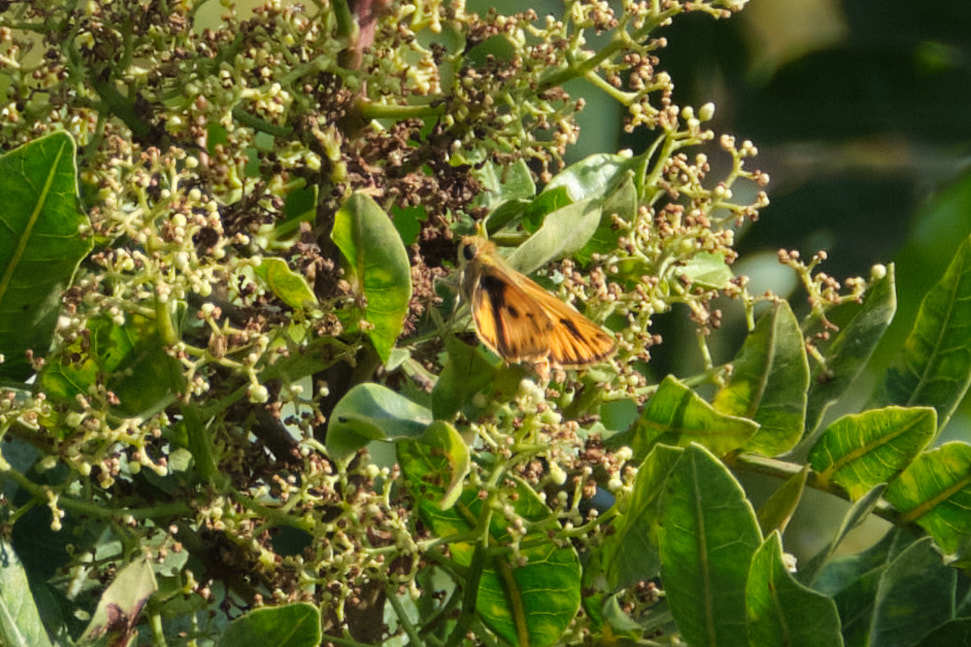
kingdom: Animalia
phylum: Arthropoda
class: Insecta
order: Lepidoptera
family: Hesperiidae
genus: Hylephila
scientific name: Hylephila phyleus
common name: Fiery skipper
